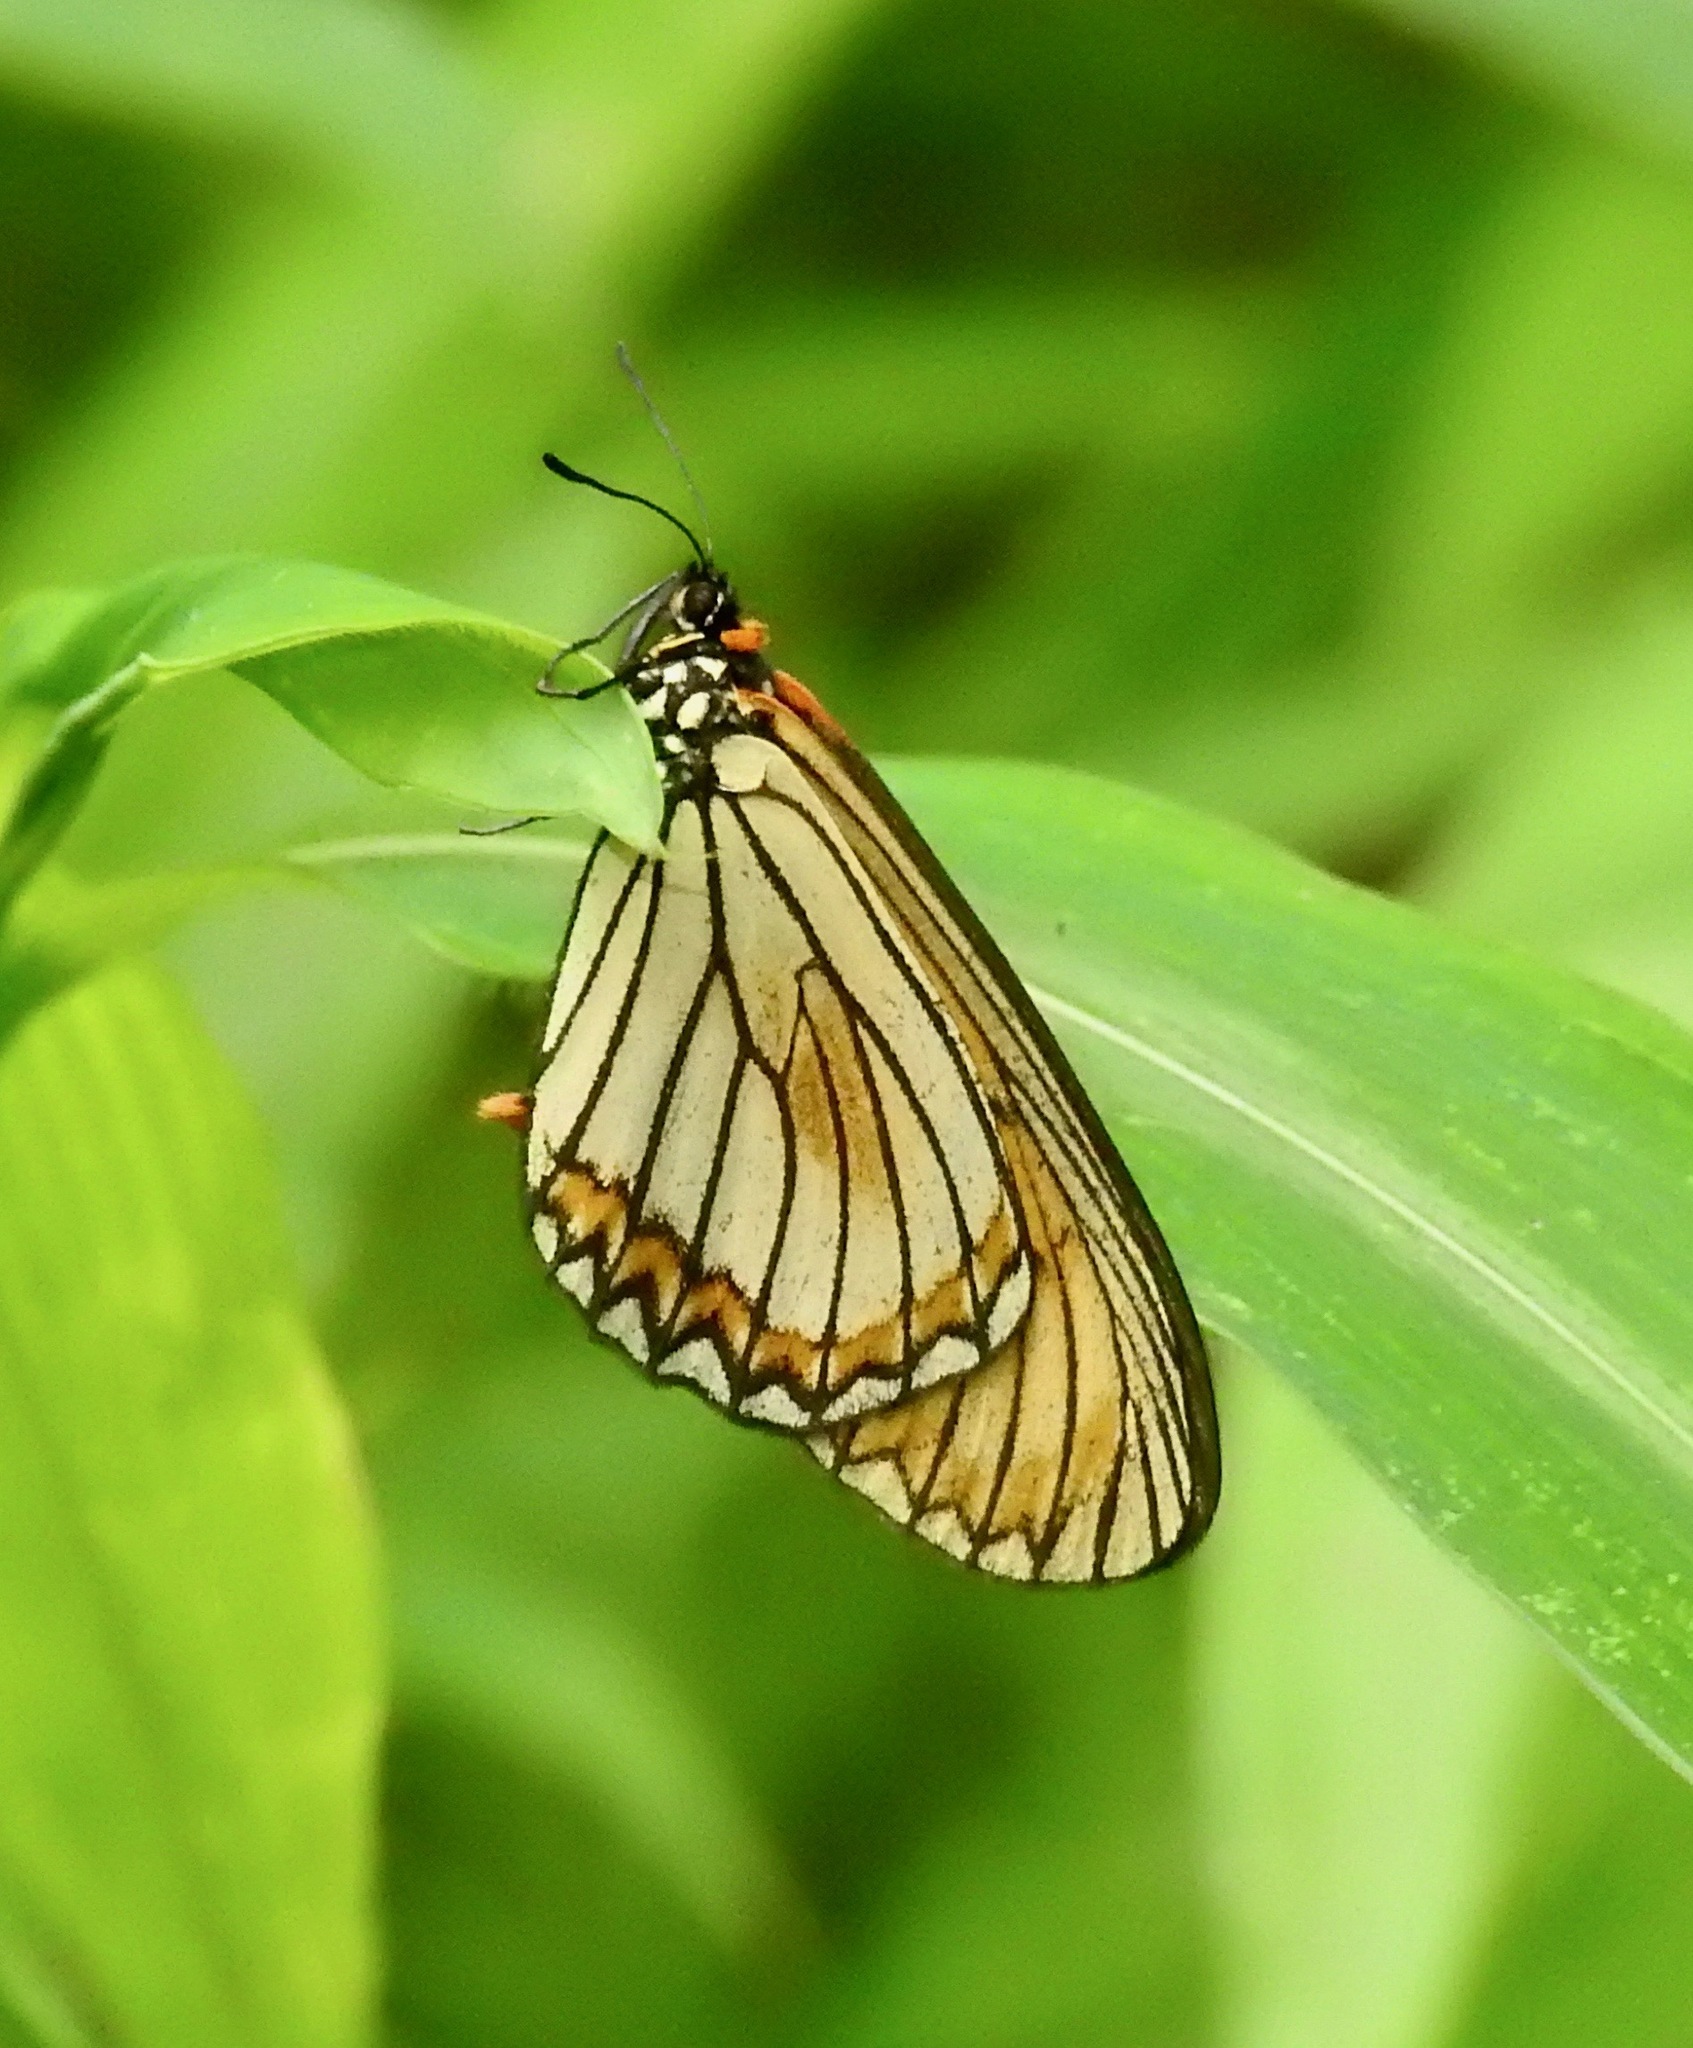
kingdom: Animalia
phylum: Arthropoda
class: Insecta
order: Lepidoptera
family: Nymphalidae
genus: Acraea
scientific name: Acraea Telchinia issoria
